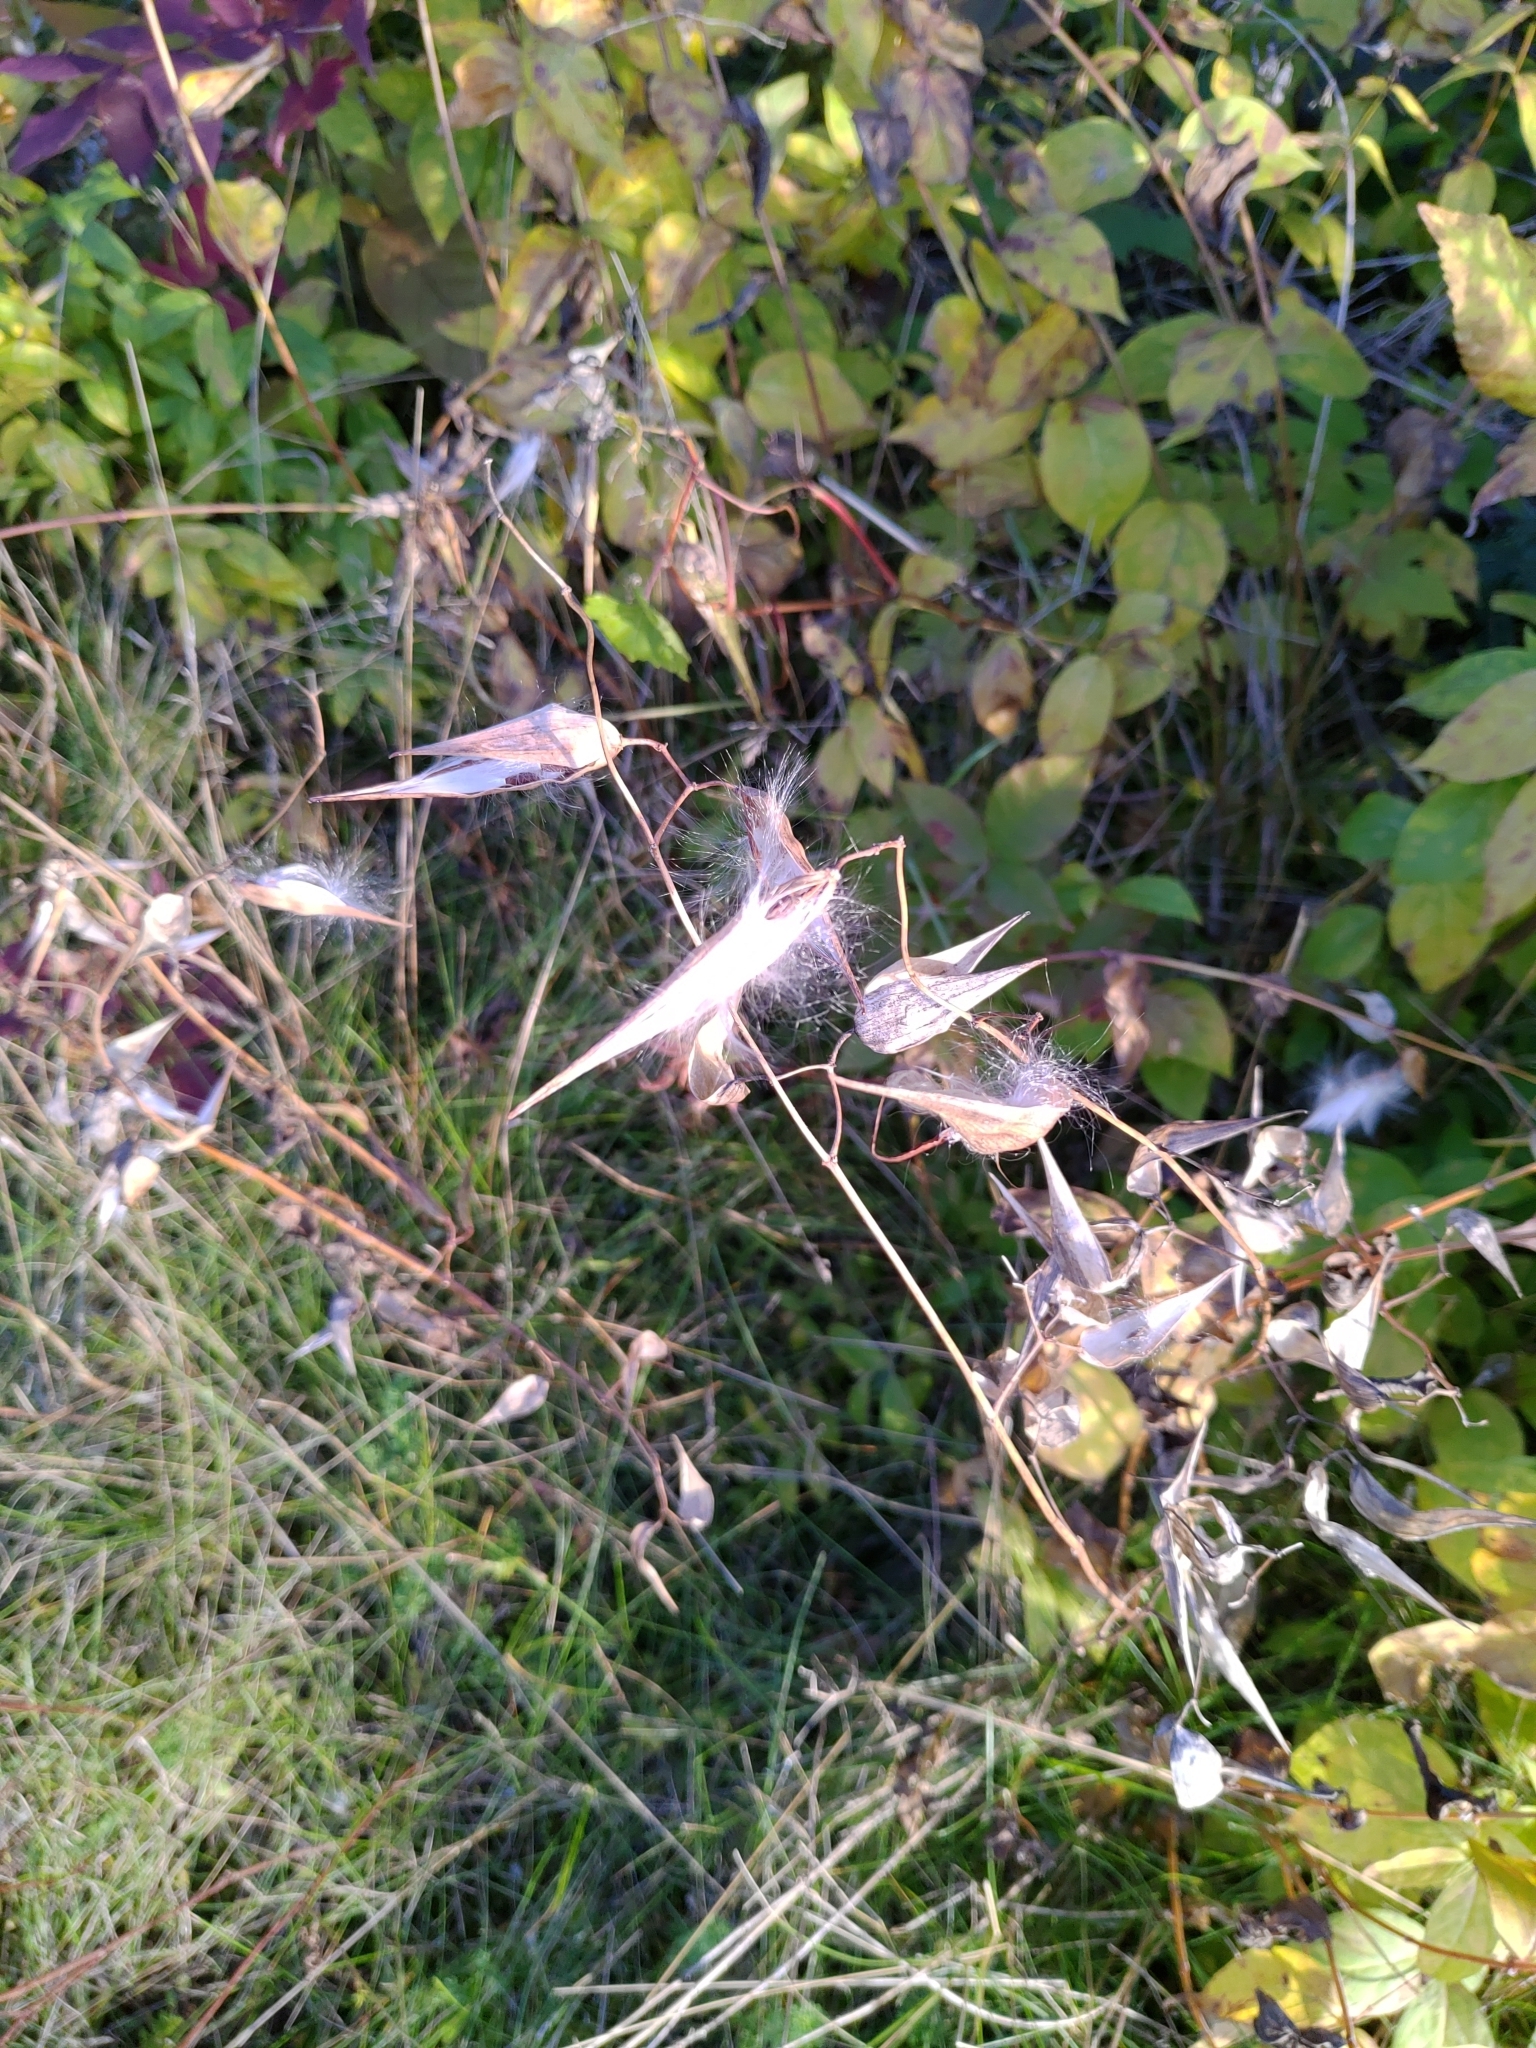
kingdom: Plantae
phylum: Tracheophyta
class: Magnoliopsida
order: Gentianales
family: Apocynaceae
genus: Vincetoxicum
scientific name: Vincetoxicum rossicum
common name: Dog-strangling vine
